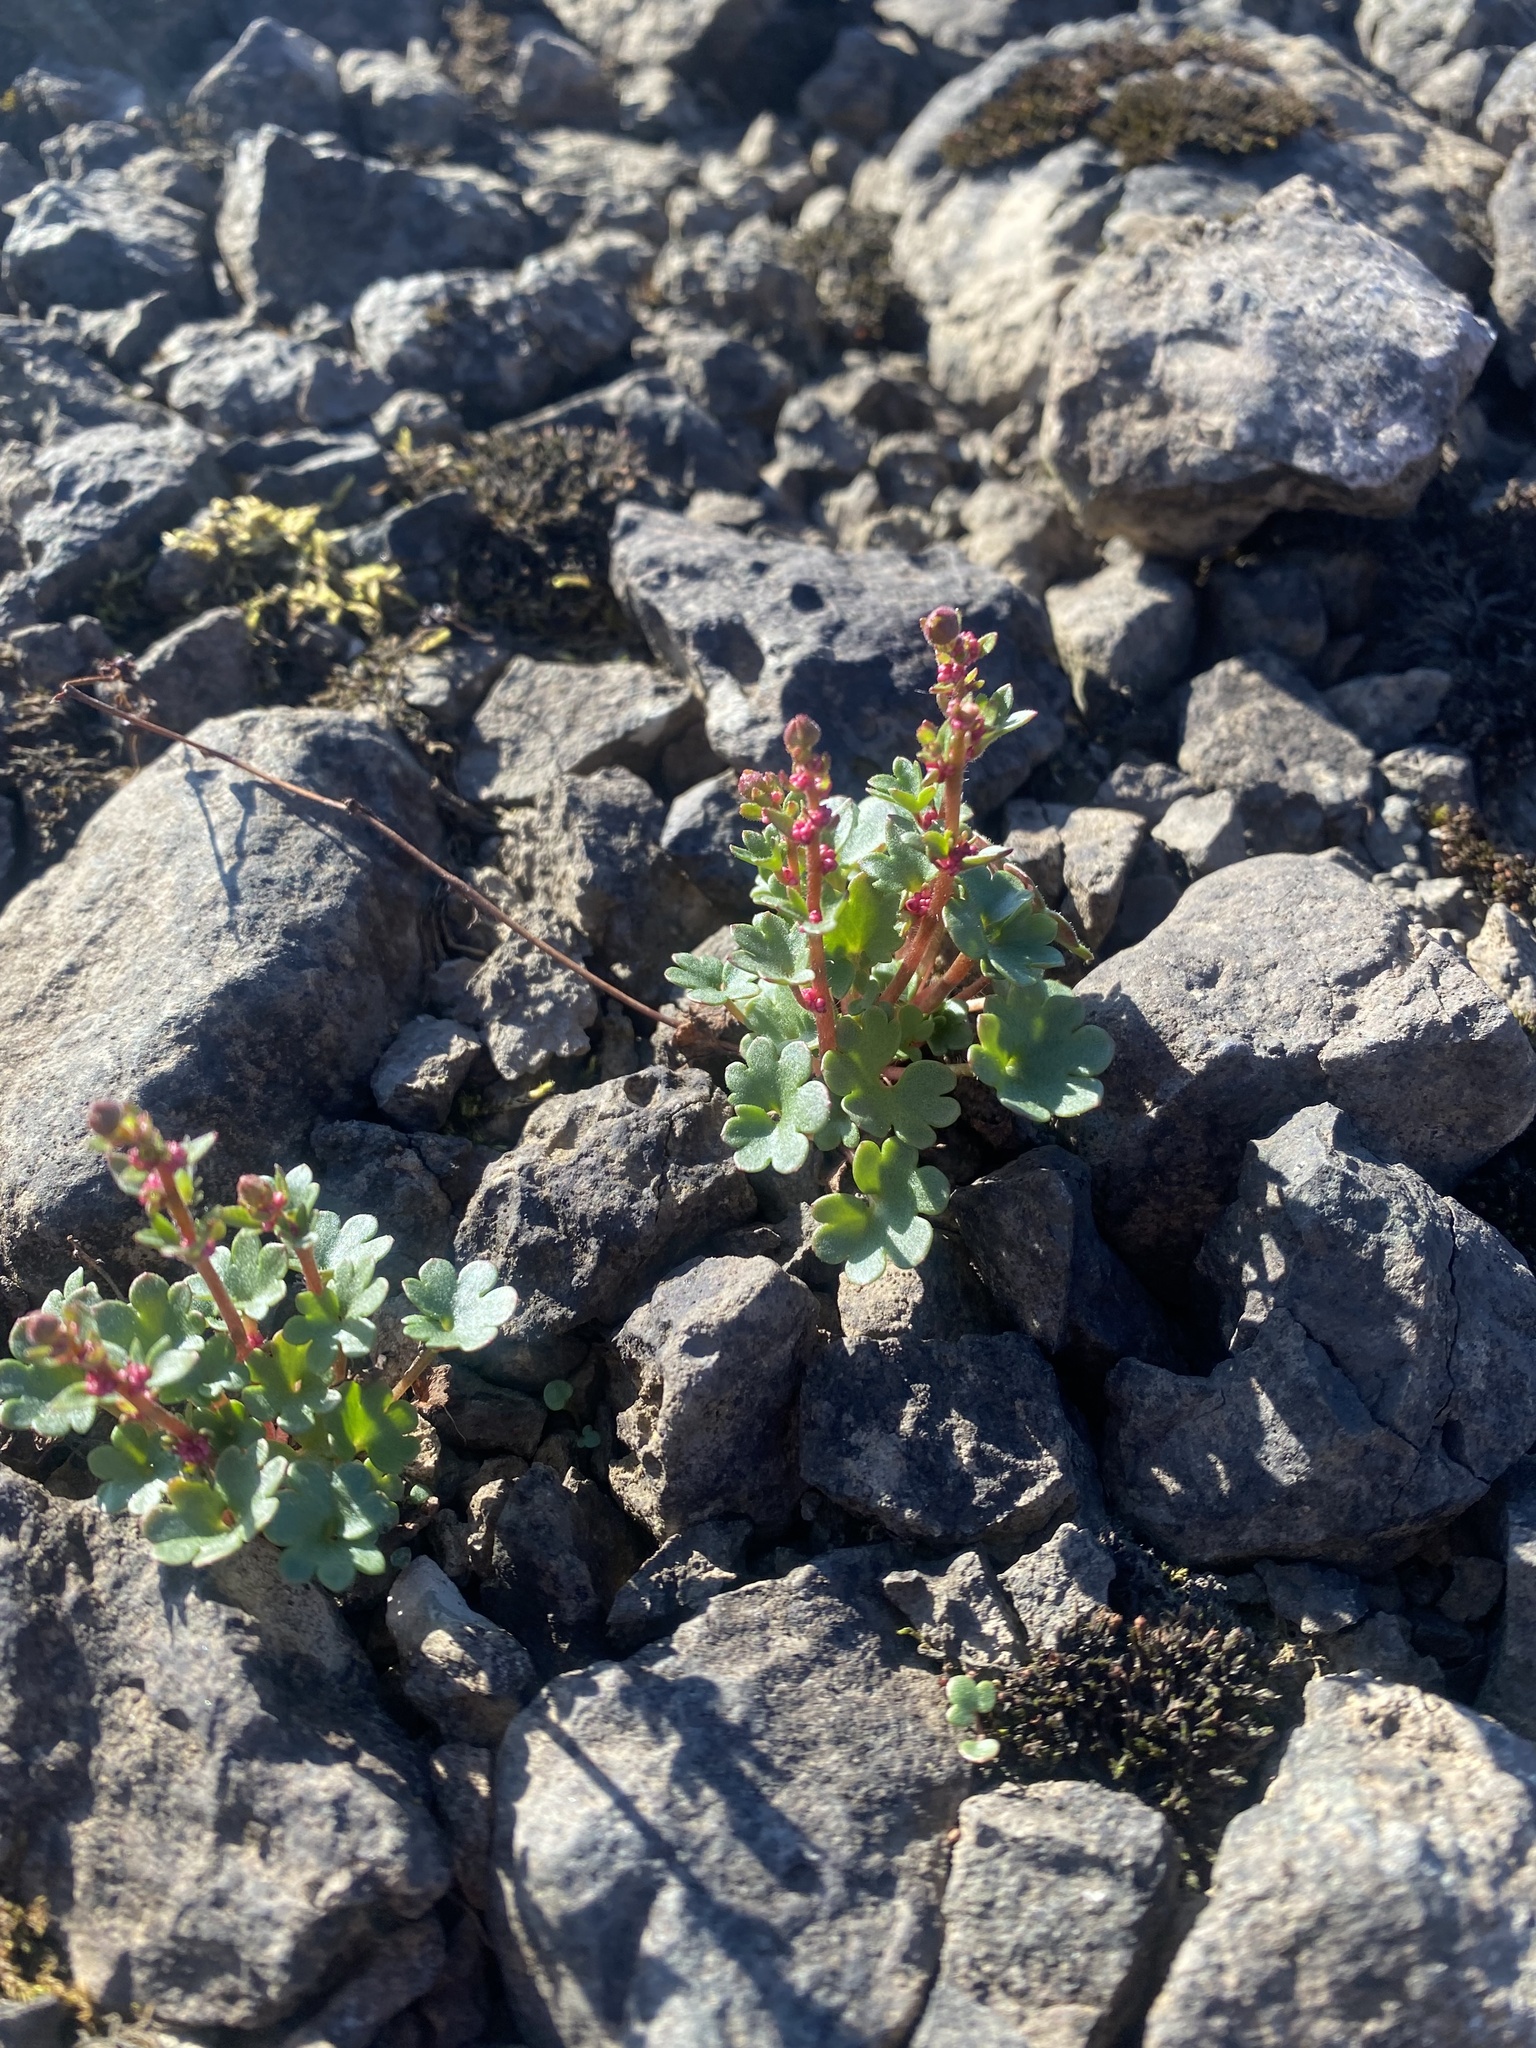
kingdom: Plantae
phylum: Tracheophyta
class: Magnoliopsida
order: Saxifragales
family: Saxifragaceae
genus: Saxifraga
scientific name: Saxifraga cernua
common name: Drooping saxifrage
